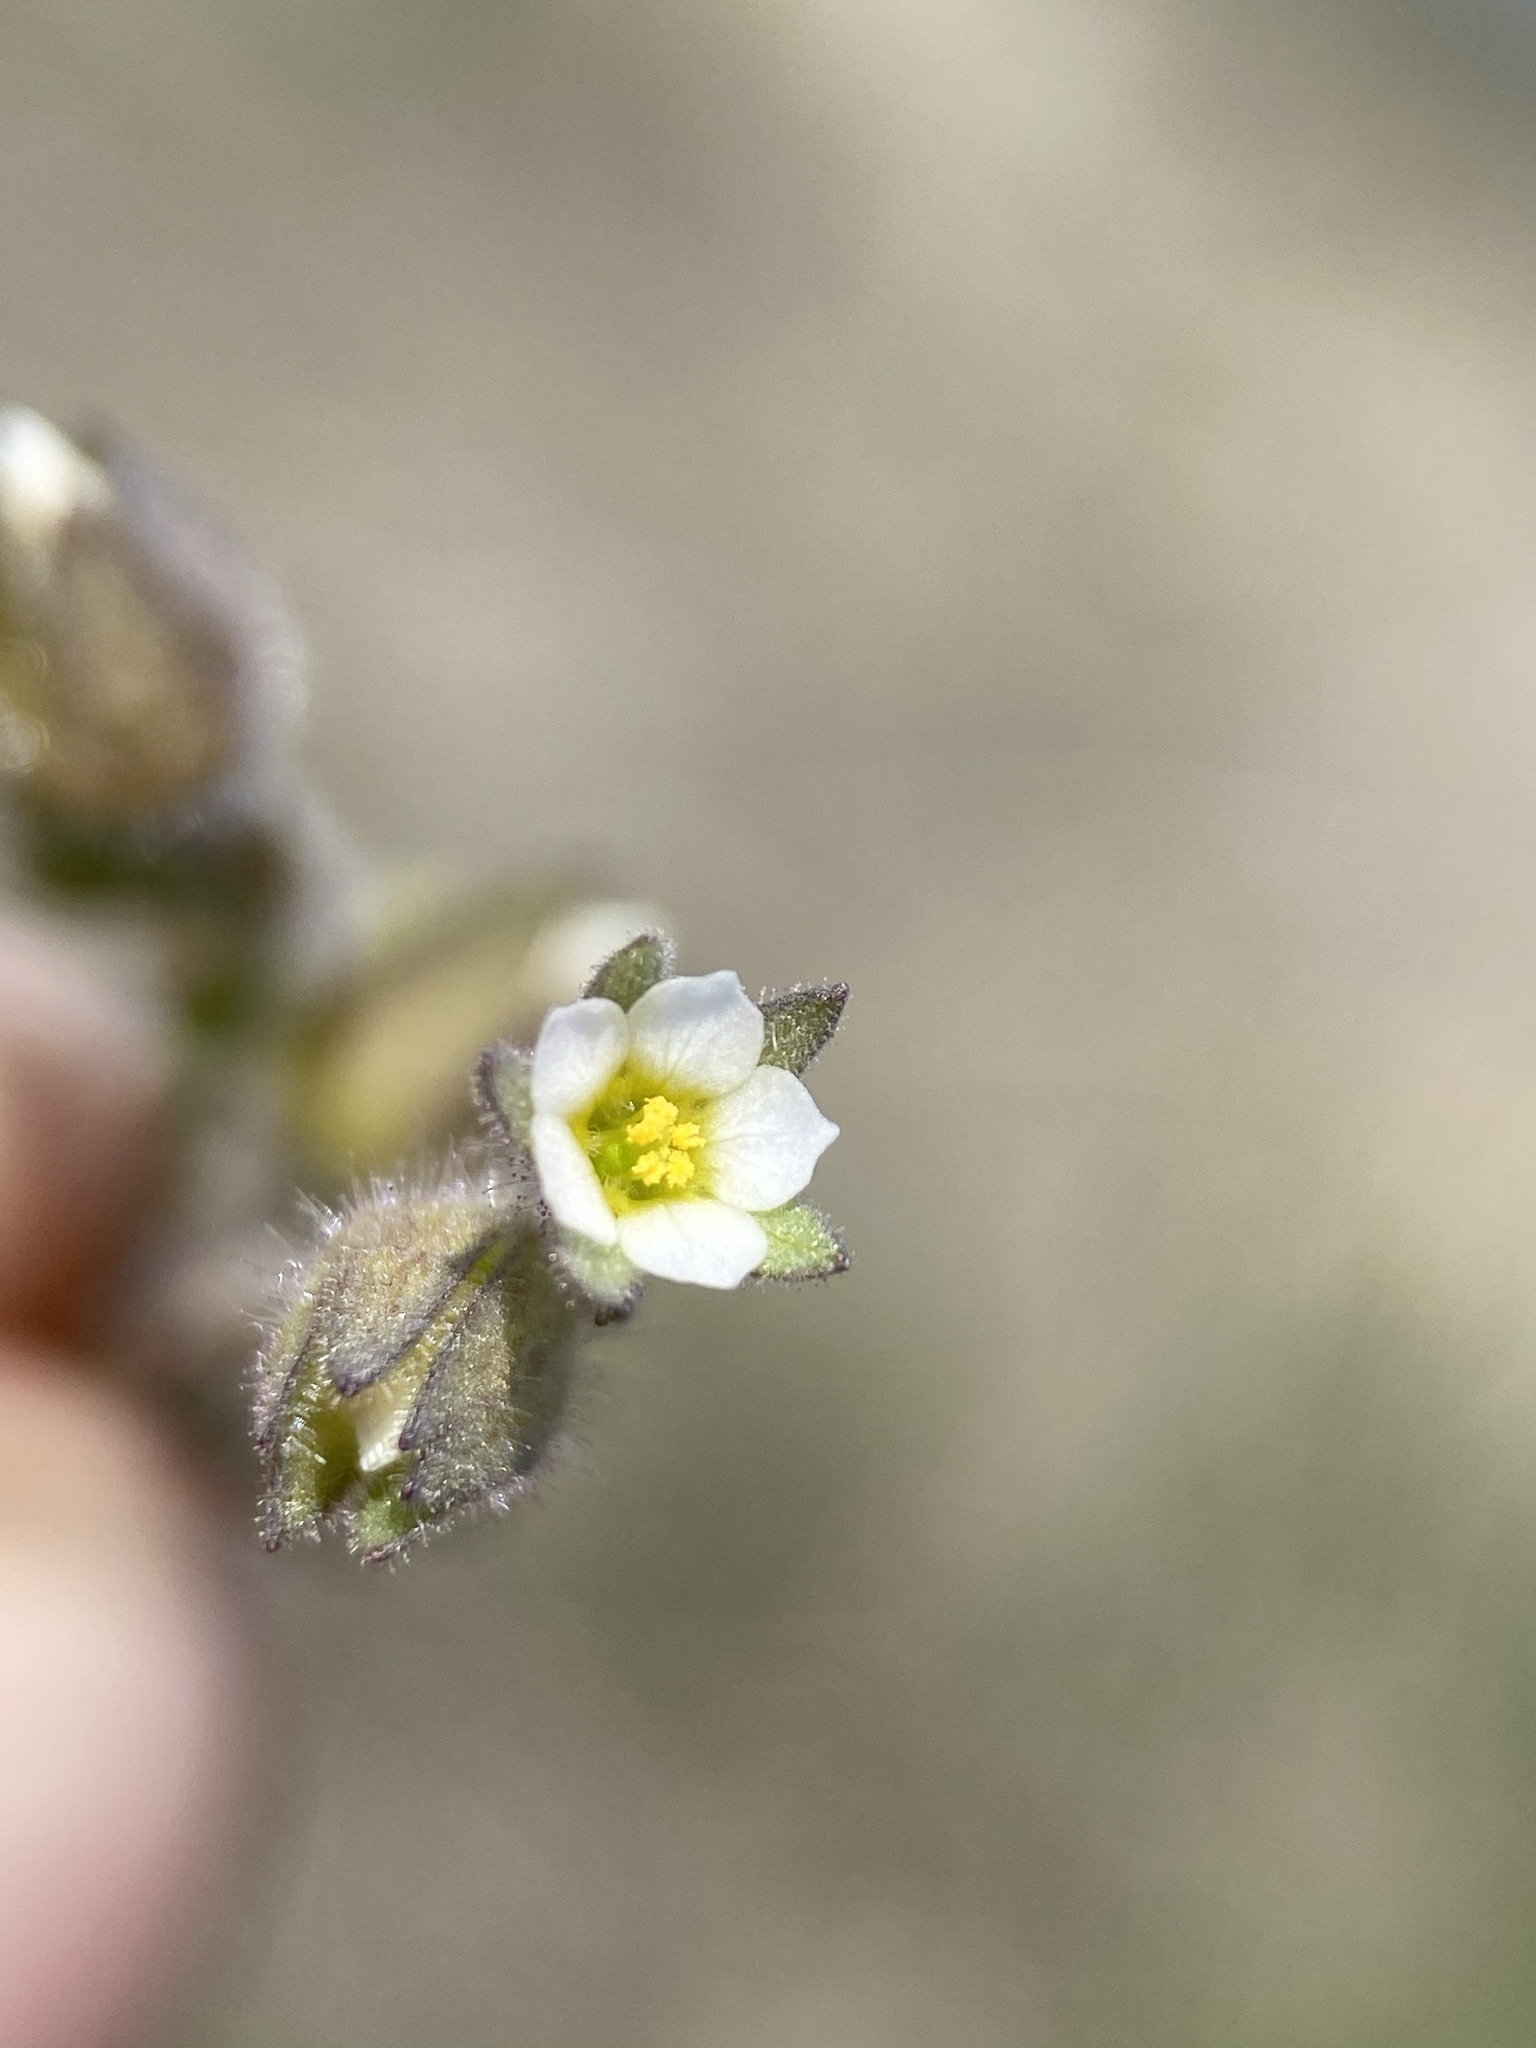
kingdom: Plantae
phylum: Tracheophyta
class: Magnoliopsida
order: Ericales
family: Polemoniaceae
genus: Polemonium
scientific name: Polemonium micranthum
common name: Annual jacob's-ladder
